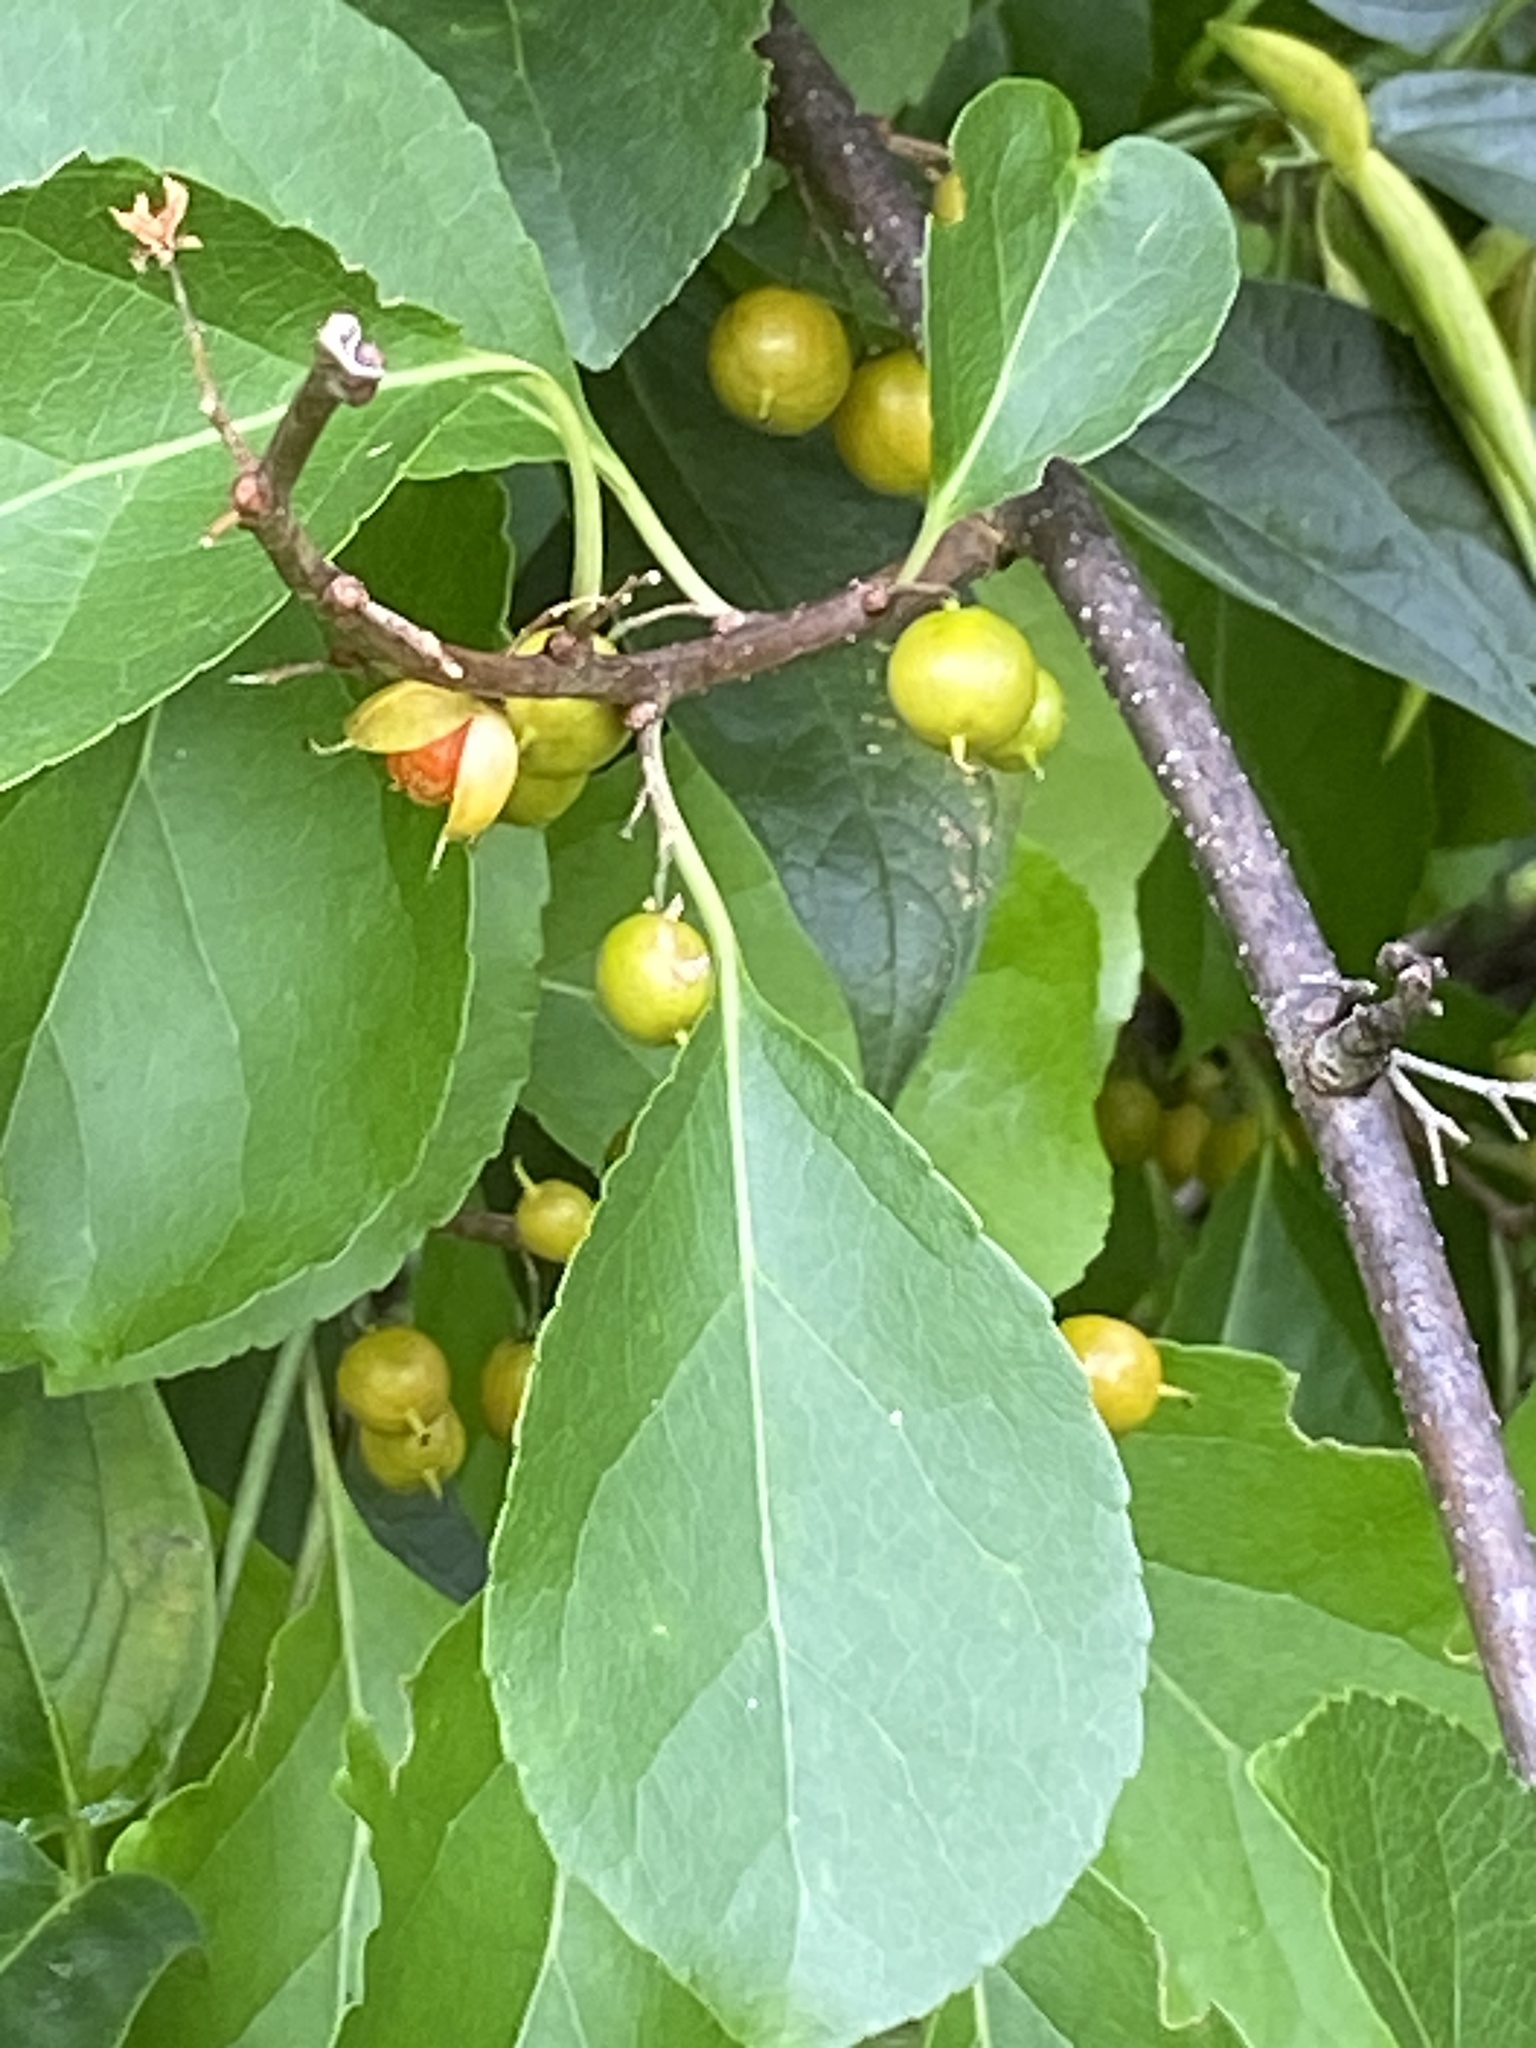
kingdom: Plantae
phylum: Tracheophyta
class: Magnoliopsida
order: Celastrales
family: Celastraceae
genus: Celastrus
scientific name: Celastrus orbiculatus
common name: Oriental bittersweet
